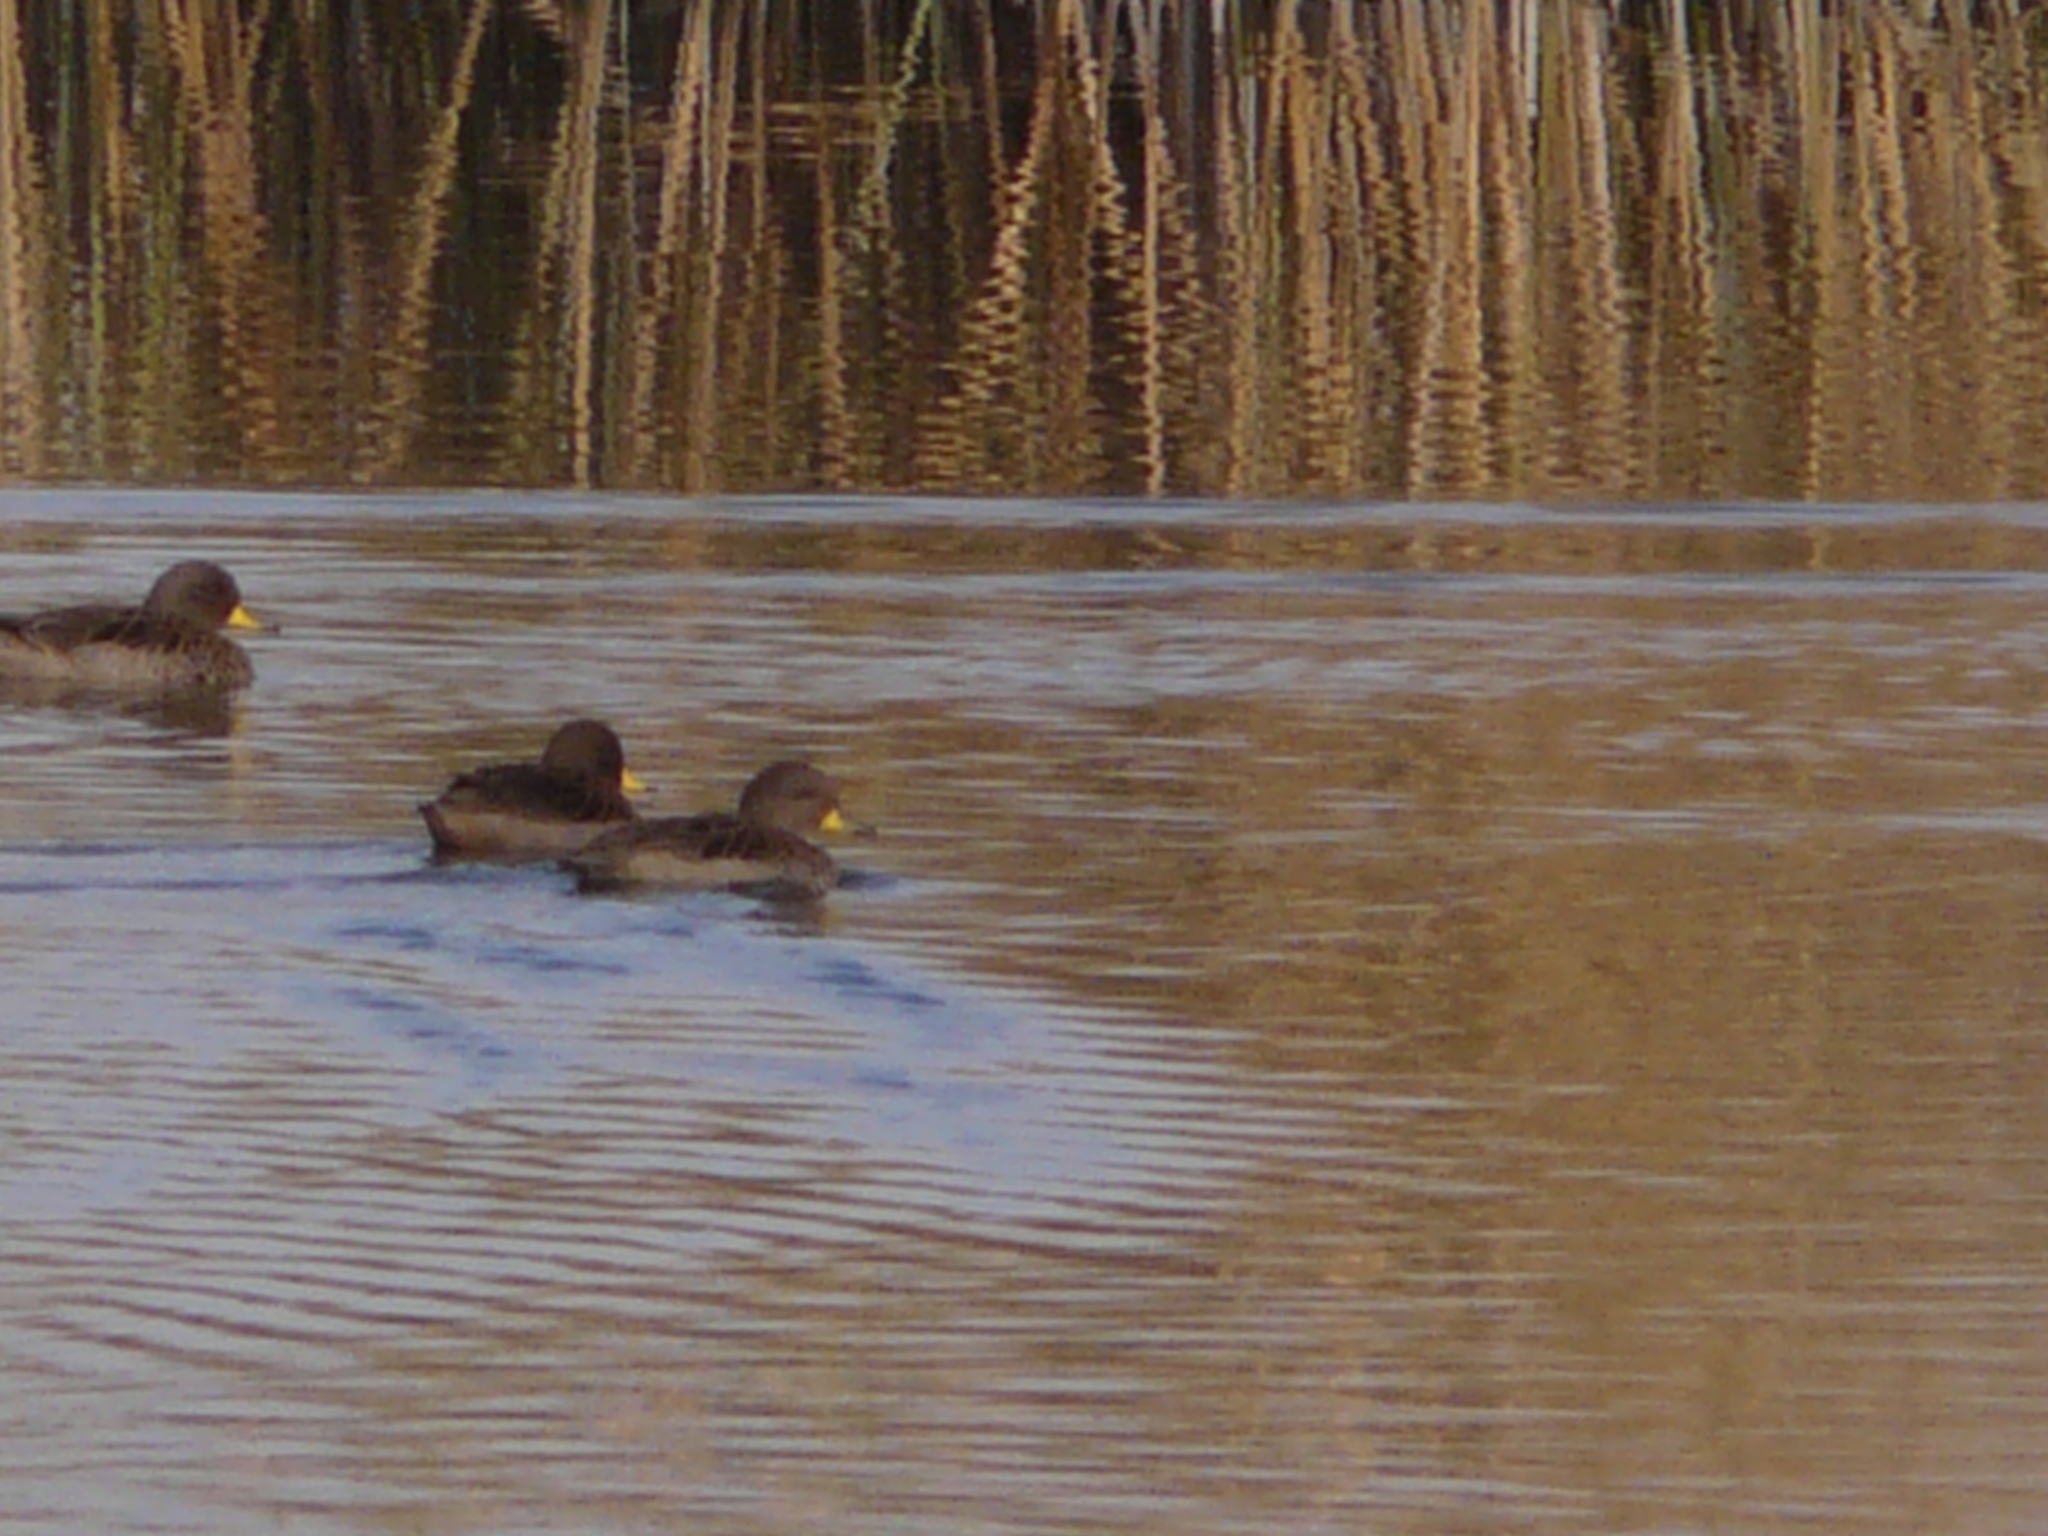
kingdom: Animalia
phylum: Chordata
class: Aves
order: Anseriformes
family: Anatidae
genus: Anas
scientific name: Anas flavirostris
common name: Yellow-billed teal
